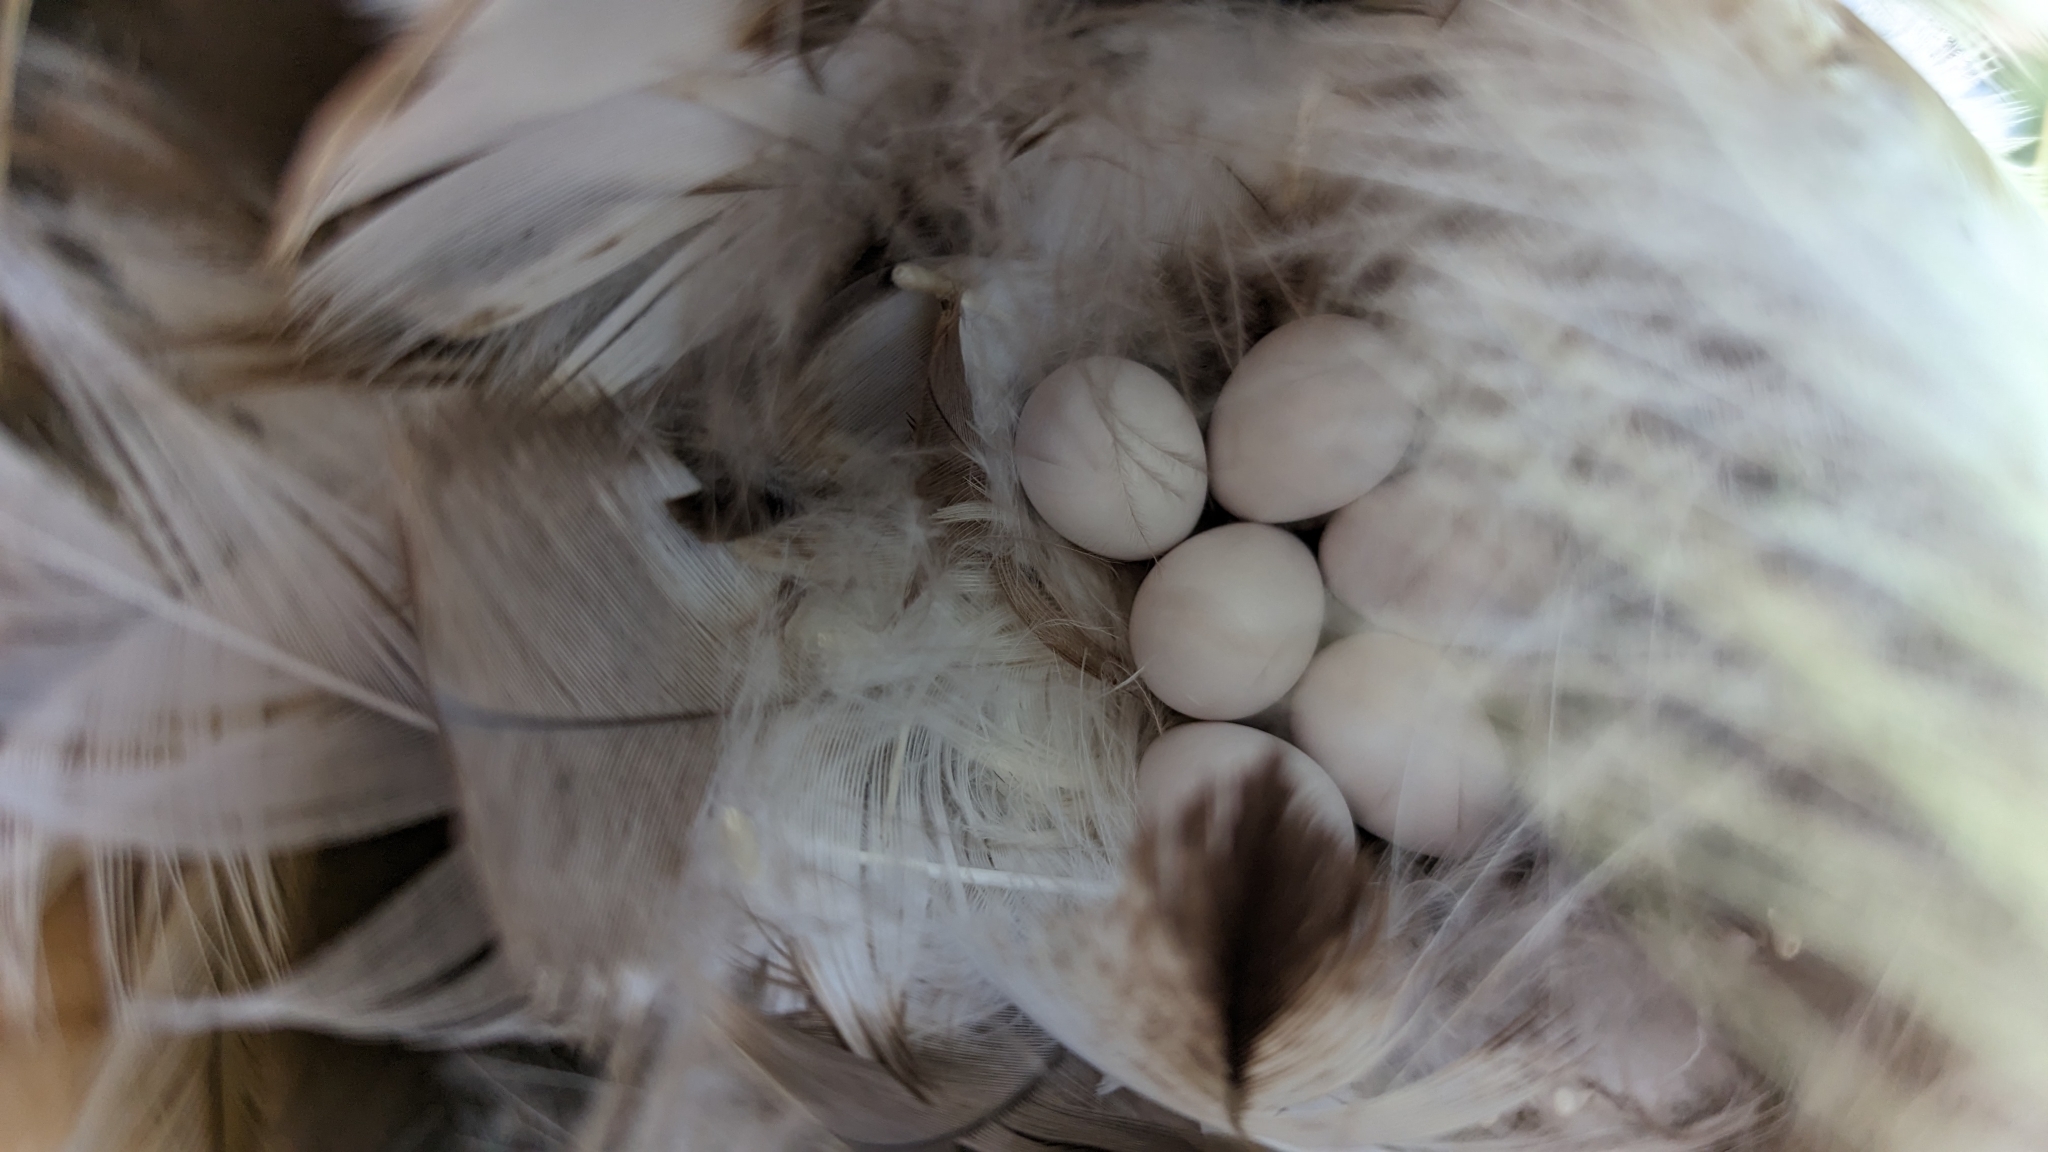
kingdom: Animalia
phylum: Chordata
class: Aves
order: Passeriformes
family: Hirundinidae
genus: Tachycineta
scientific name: Tachycineta bicolor
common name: Tree swallow
